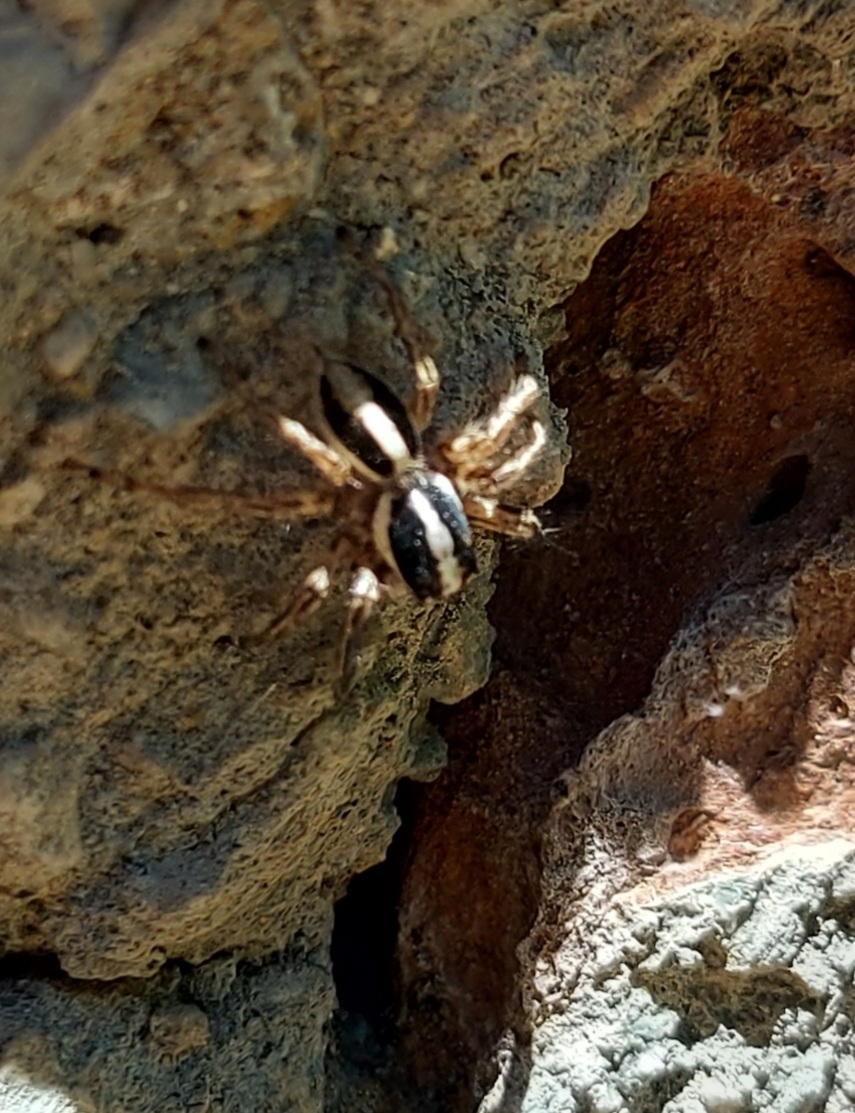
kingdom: Animalia
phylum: Arthropoda
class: Arachnida
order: Araneae
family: Salticidae
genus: Plexippus
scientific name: Plexippus paykulli
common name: Pantropical jumper
